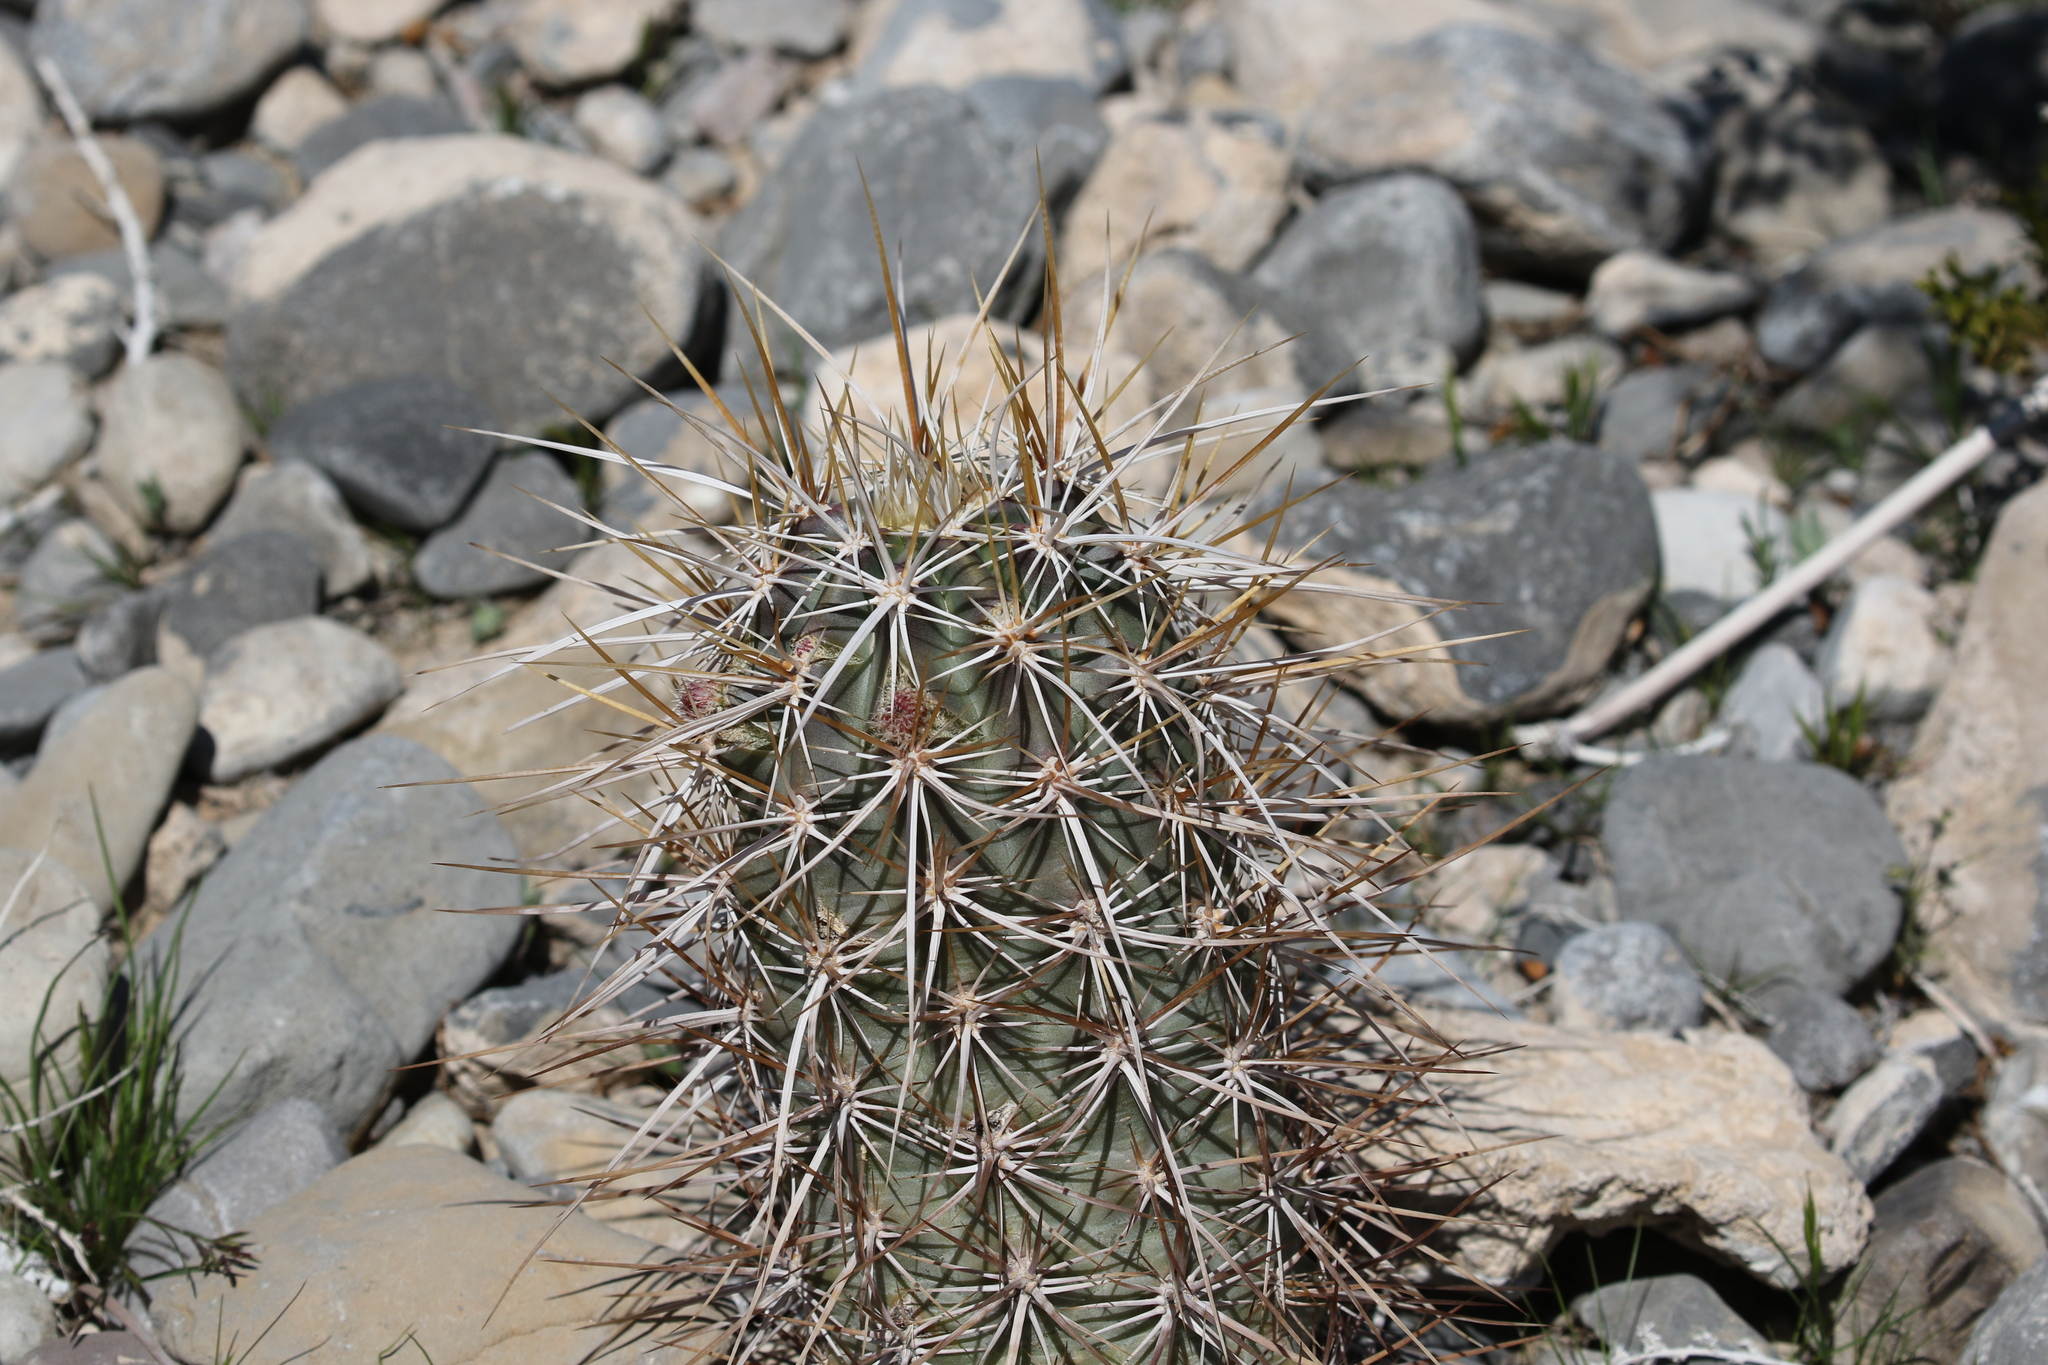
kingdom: Plantae
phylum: Tracheophyta
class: Magnoliopsida
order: Caryophyllales
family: Cactaceae
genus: Echinocereus
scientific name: Echinocereus engelmannii
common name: Engelmann's hedgehog cactus
